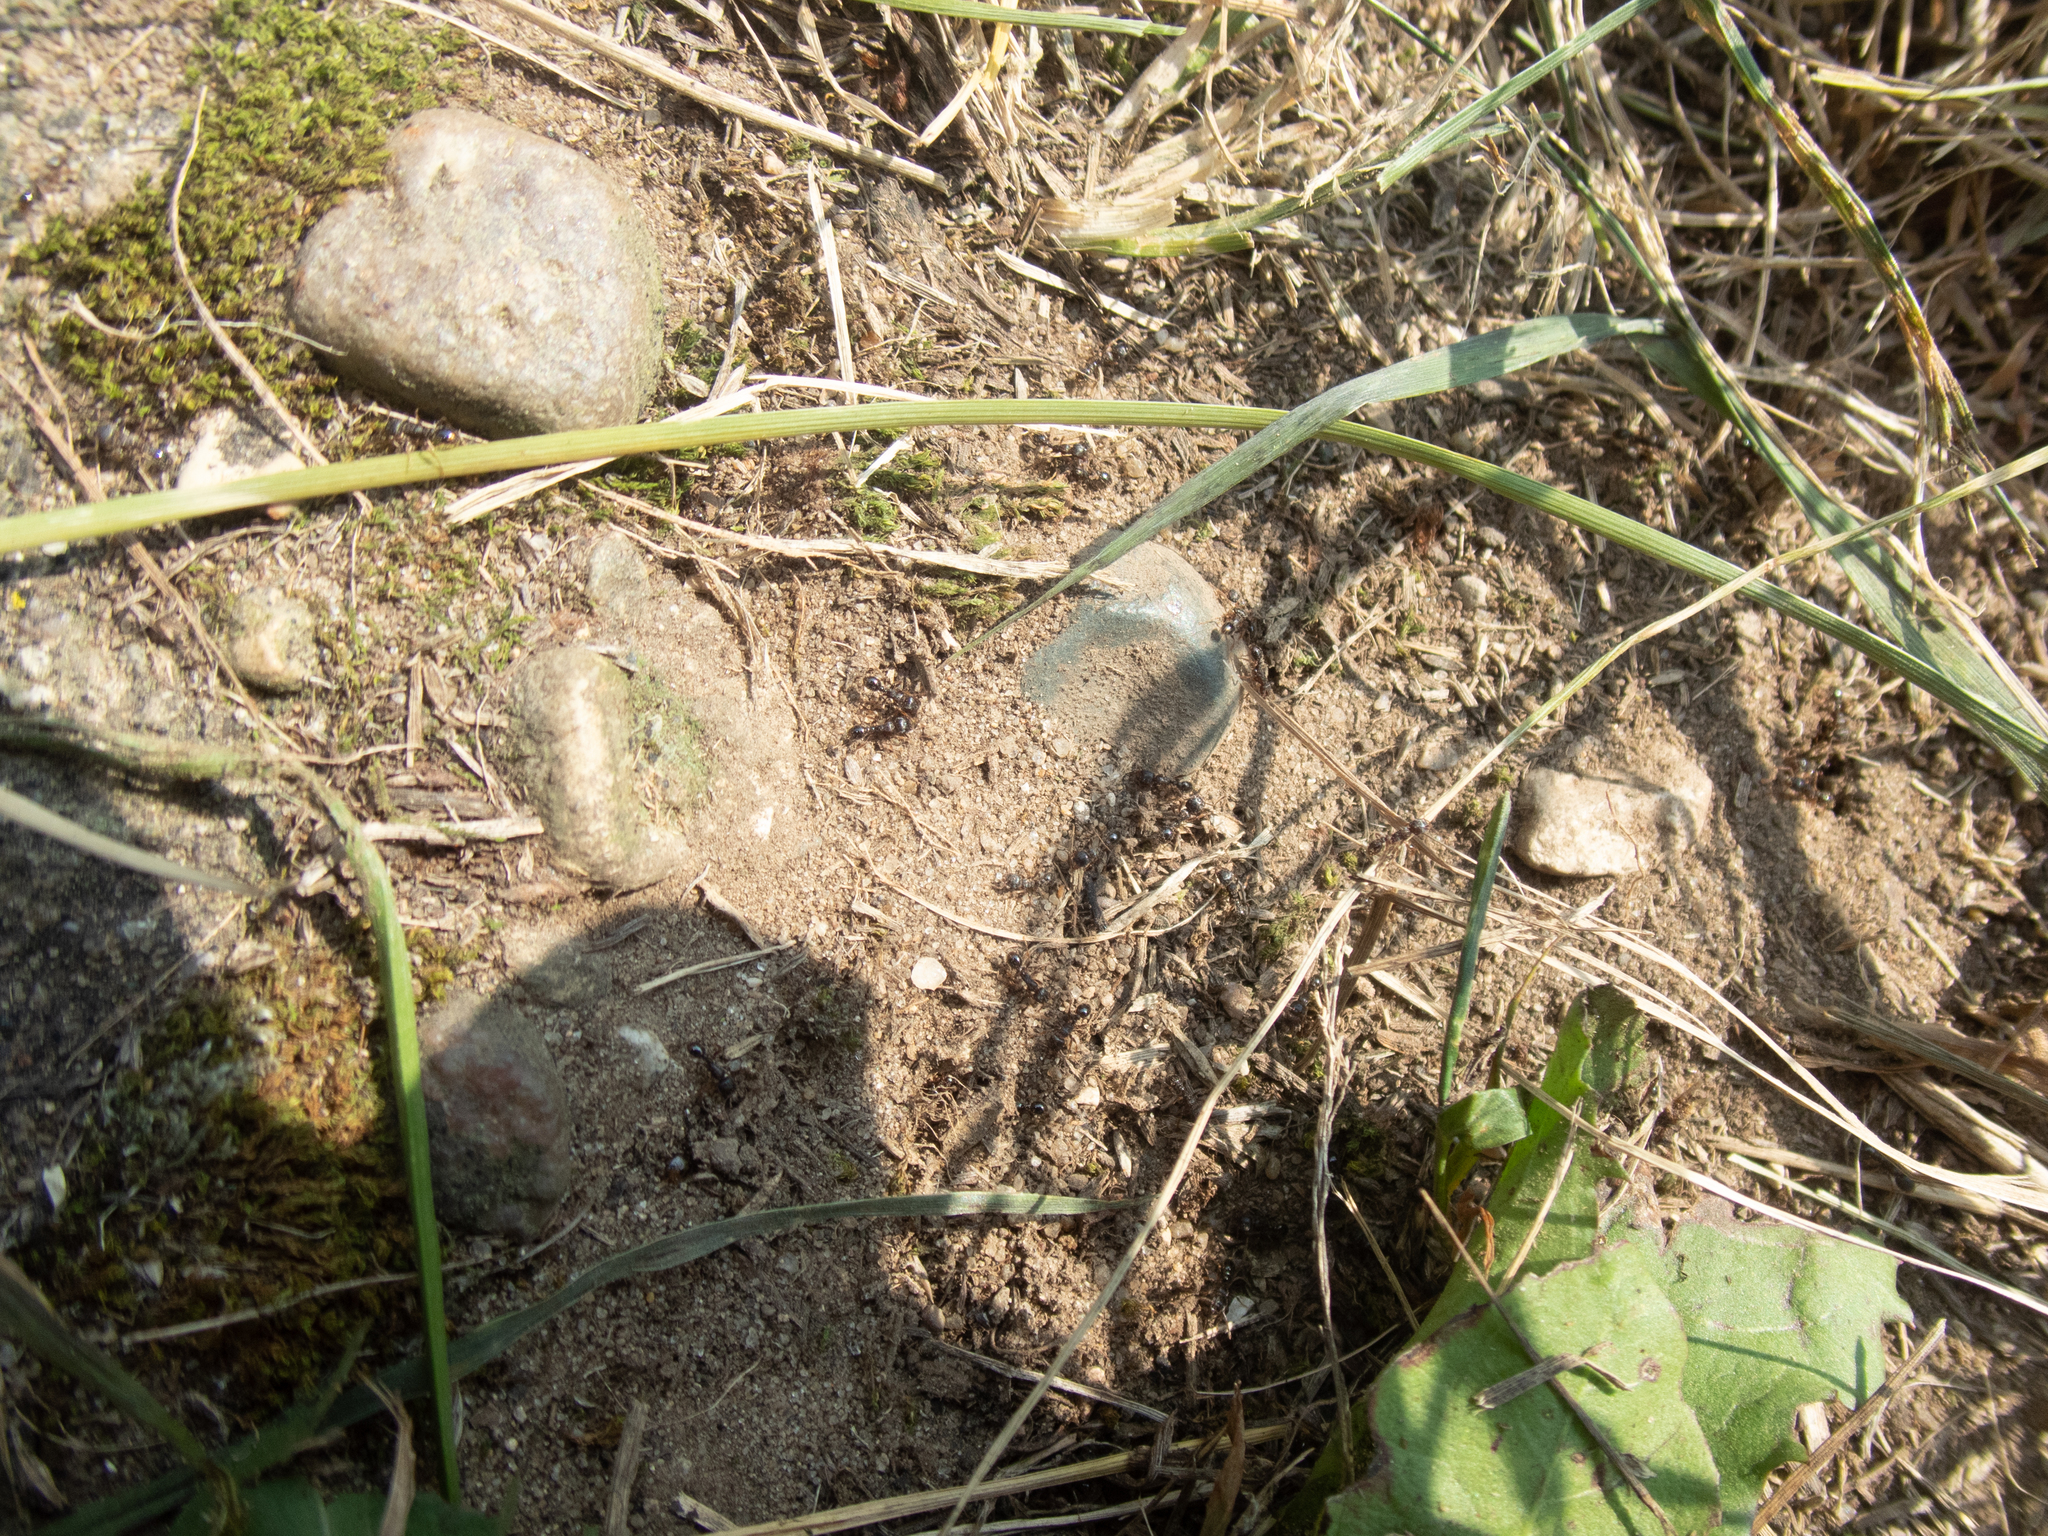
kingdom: Animalia
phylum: Arthropoda
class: Insecta
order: Hymenoptera
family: Formicidae
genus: Tetramorium
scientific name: Tetramorium immigrans
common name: Pavement ant
